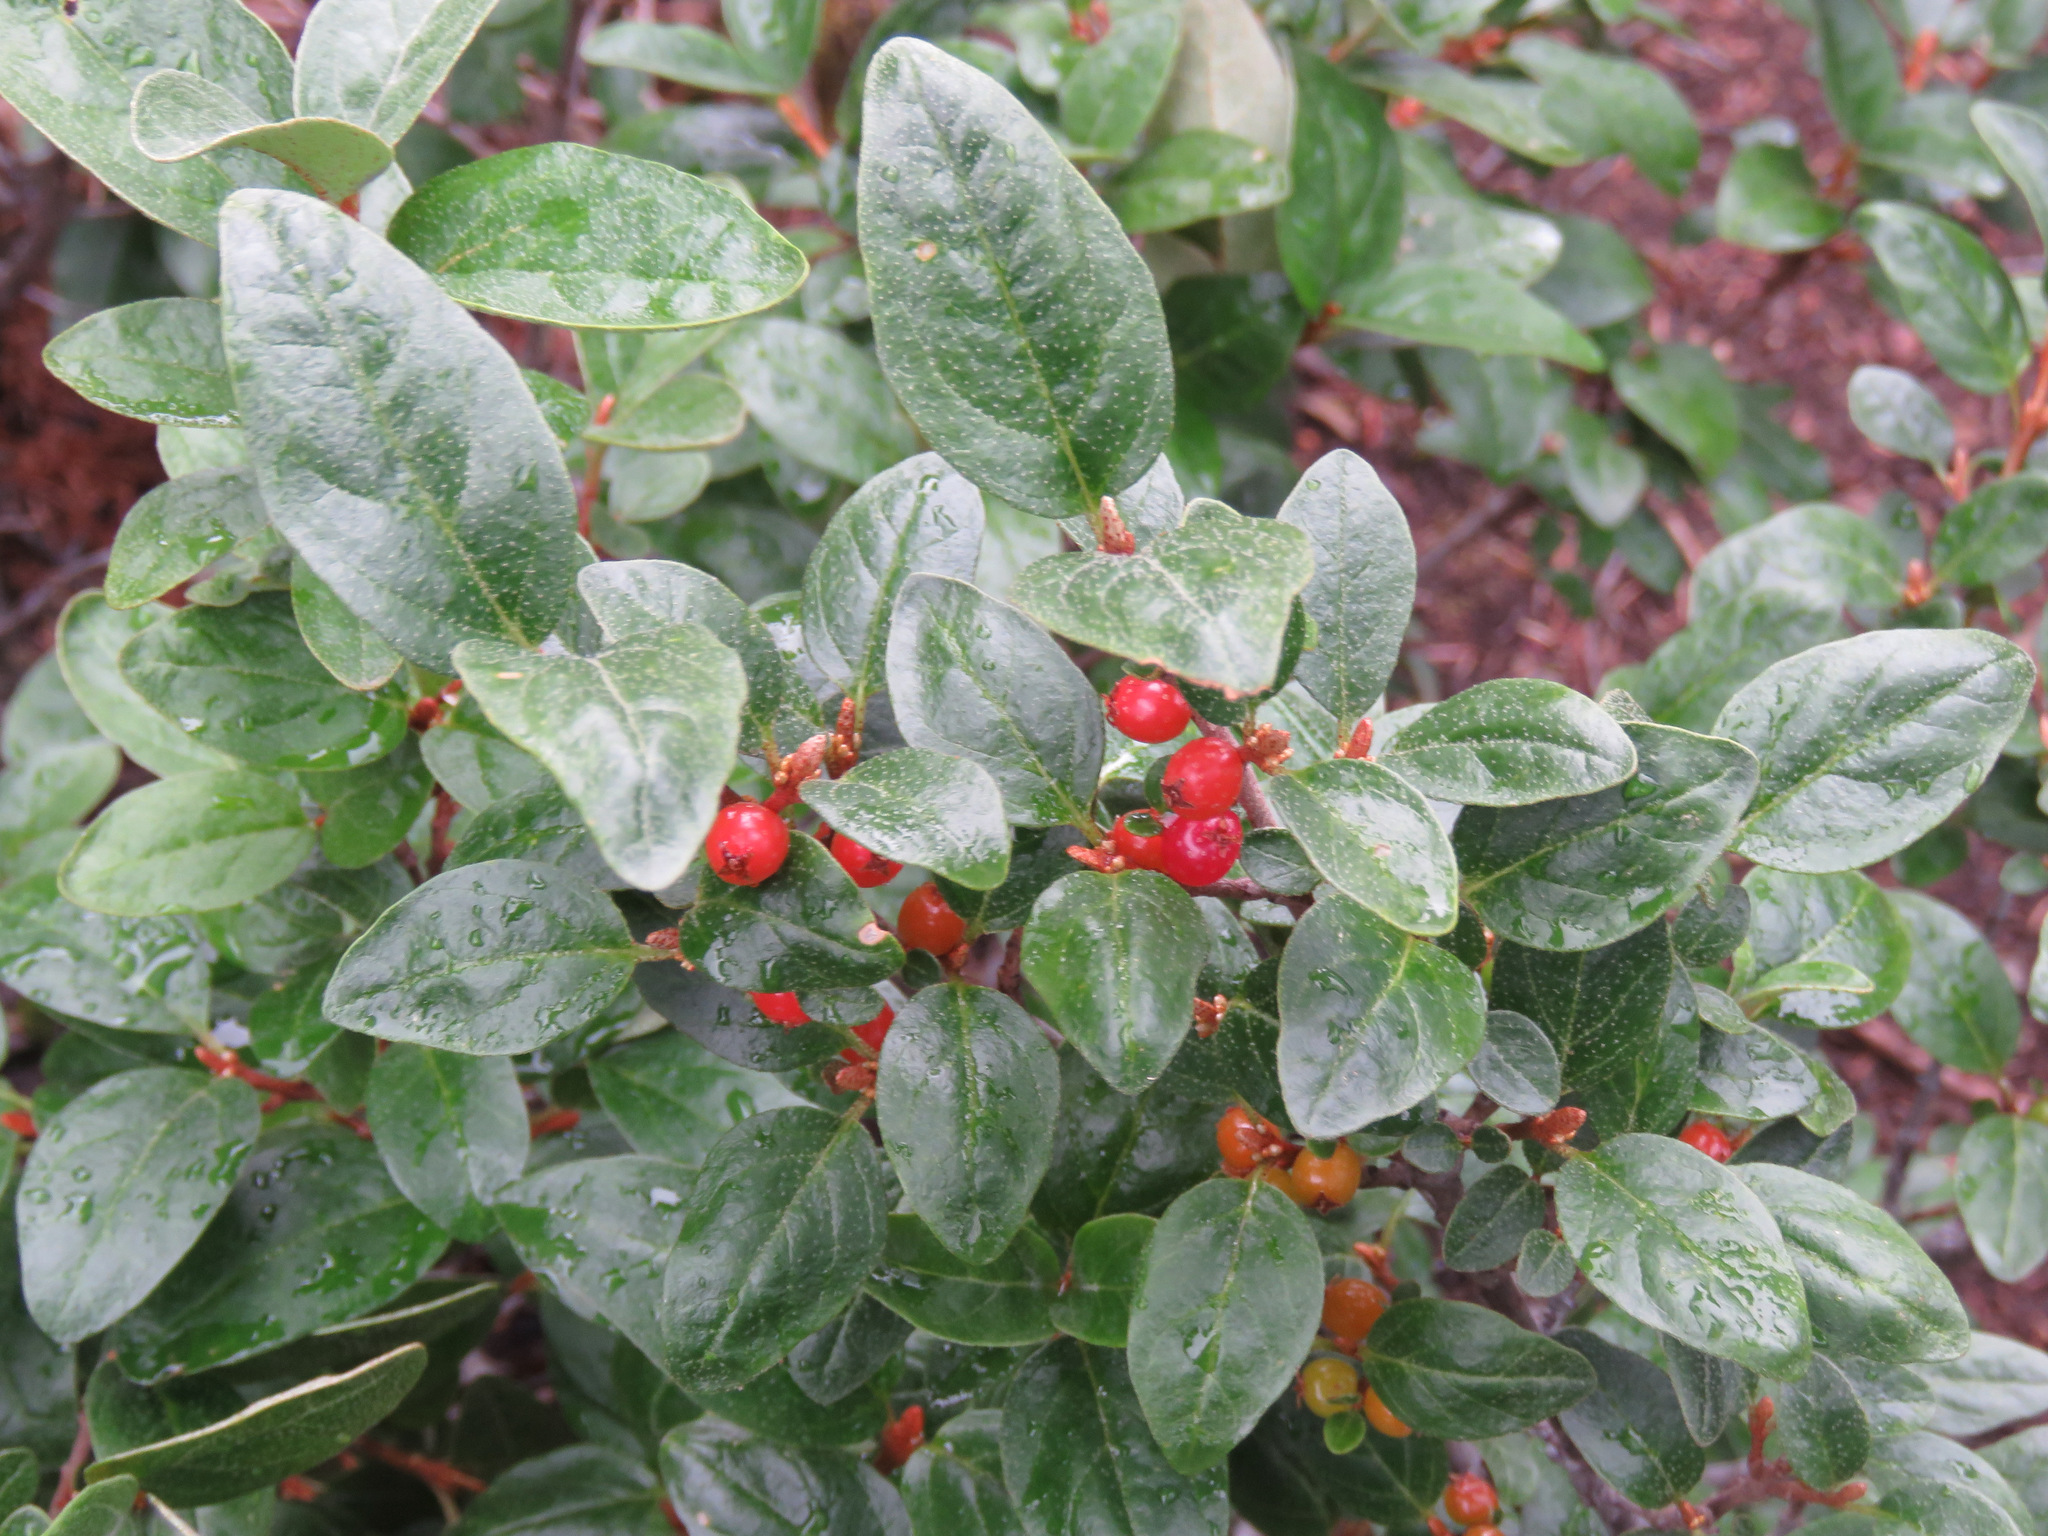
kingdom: Plantae
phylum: Tracheophyta
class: Magnoliopsida
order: Rosales
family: Elaeagnaceae
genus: Shepherdia
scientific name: Shepherdia canadensis
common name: Soapberry
